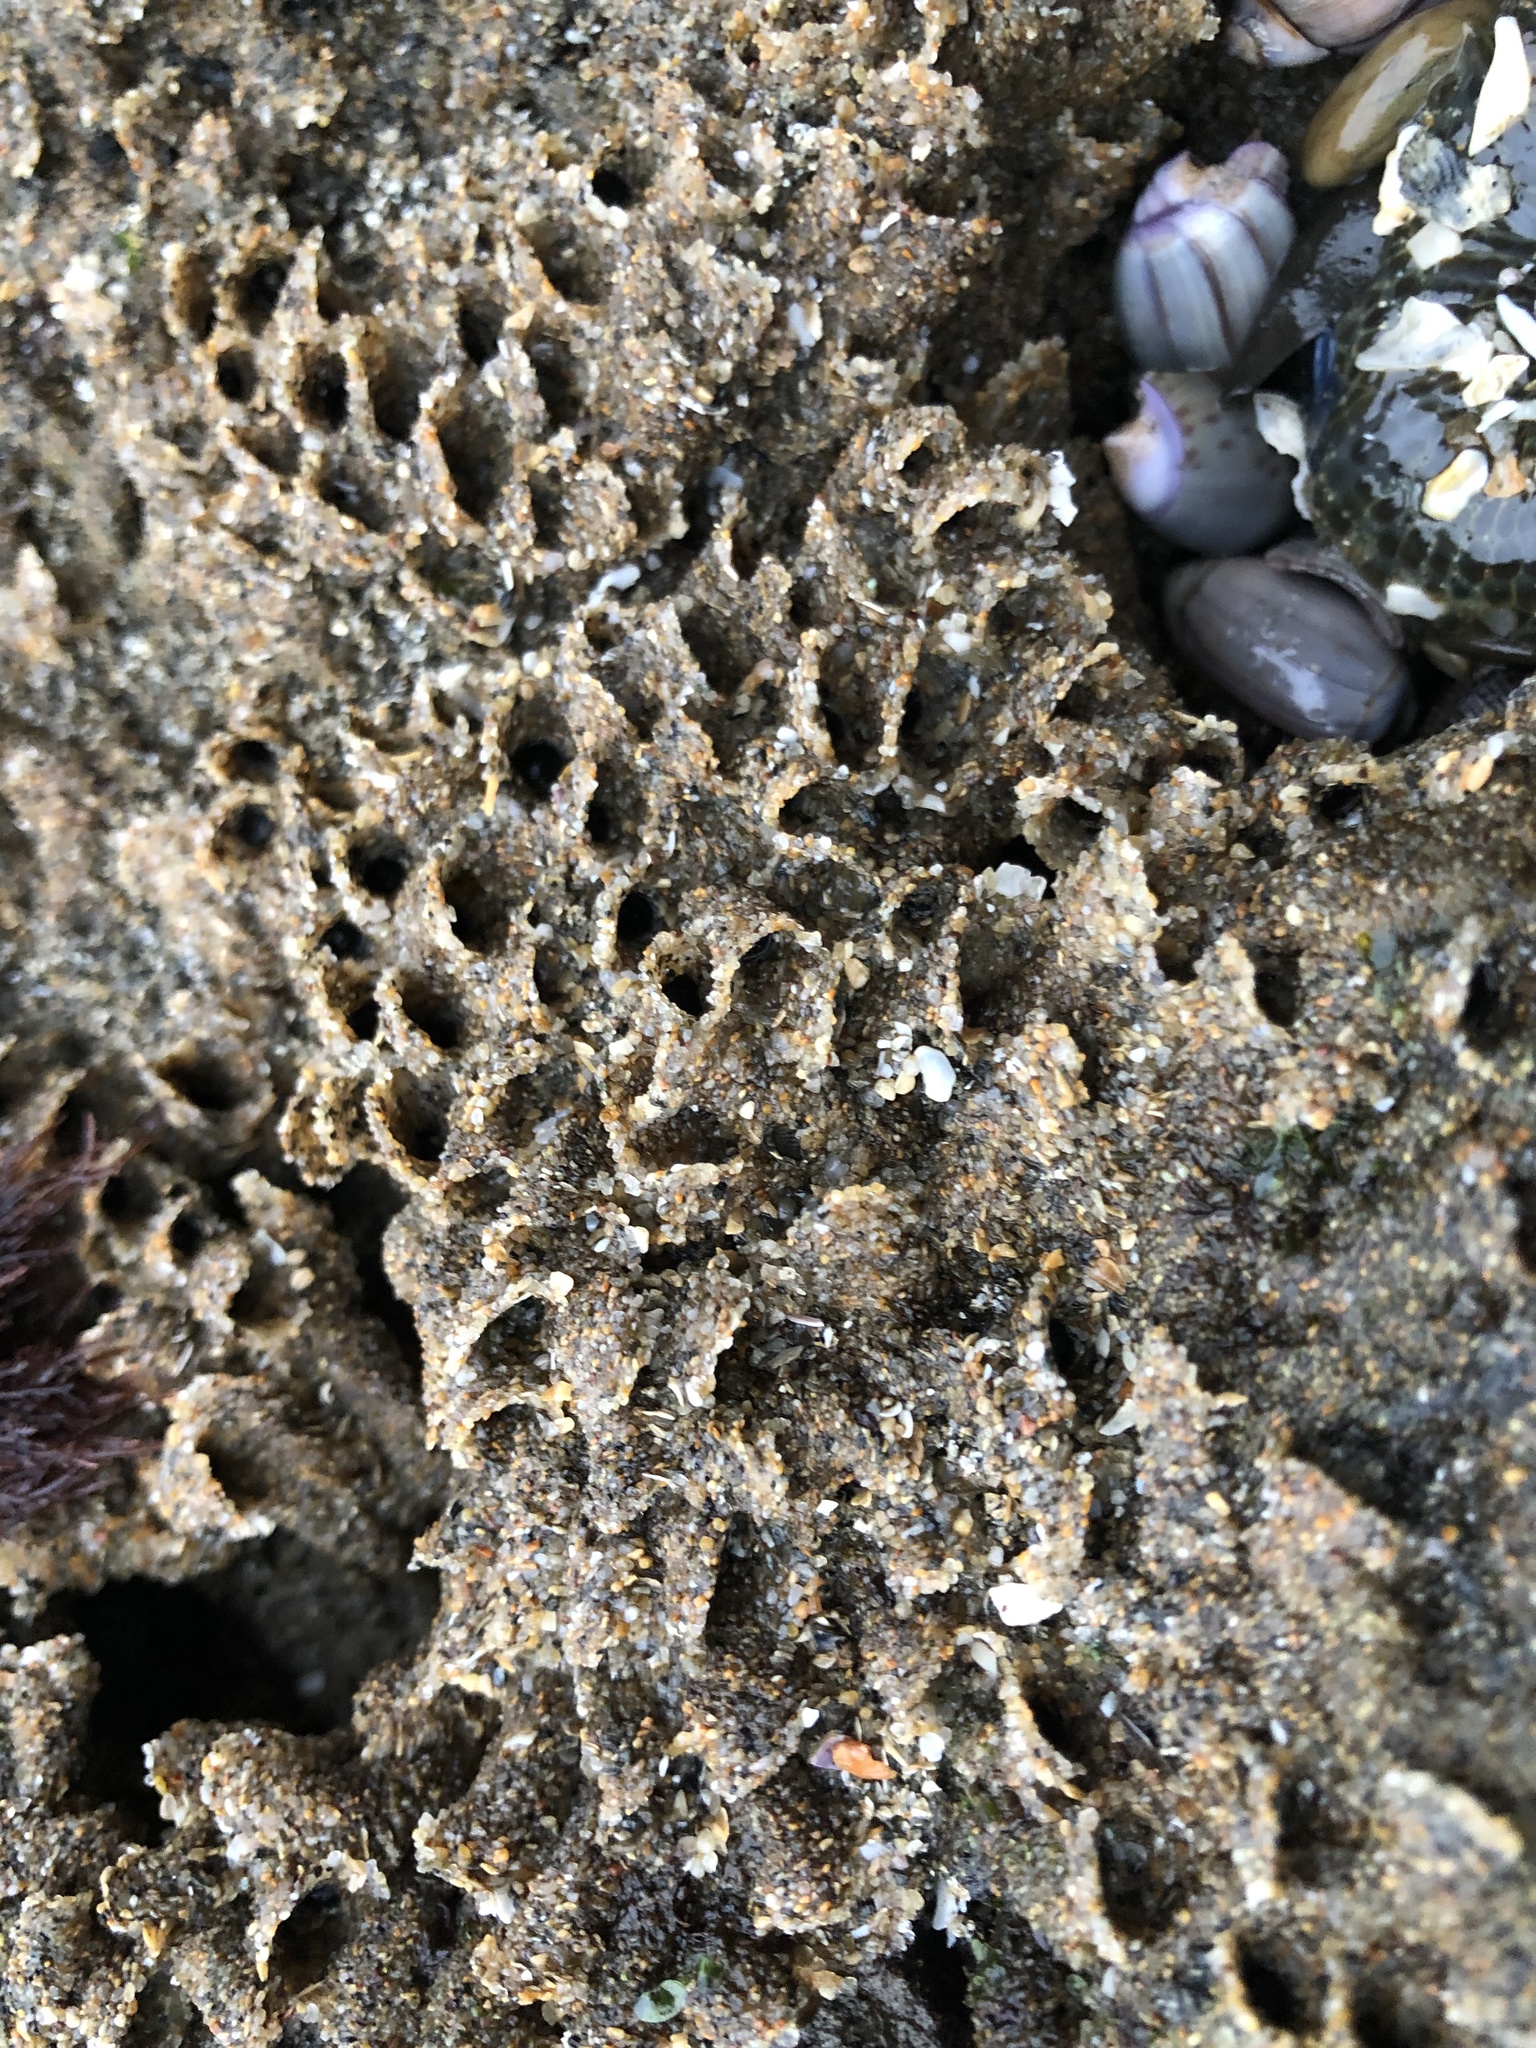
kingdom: Animalia
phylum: Annelida
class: Polychaeta
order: Sabellida
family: Sabellariidae
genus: Phragmatopoma
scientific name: Phragmatopoma californica
